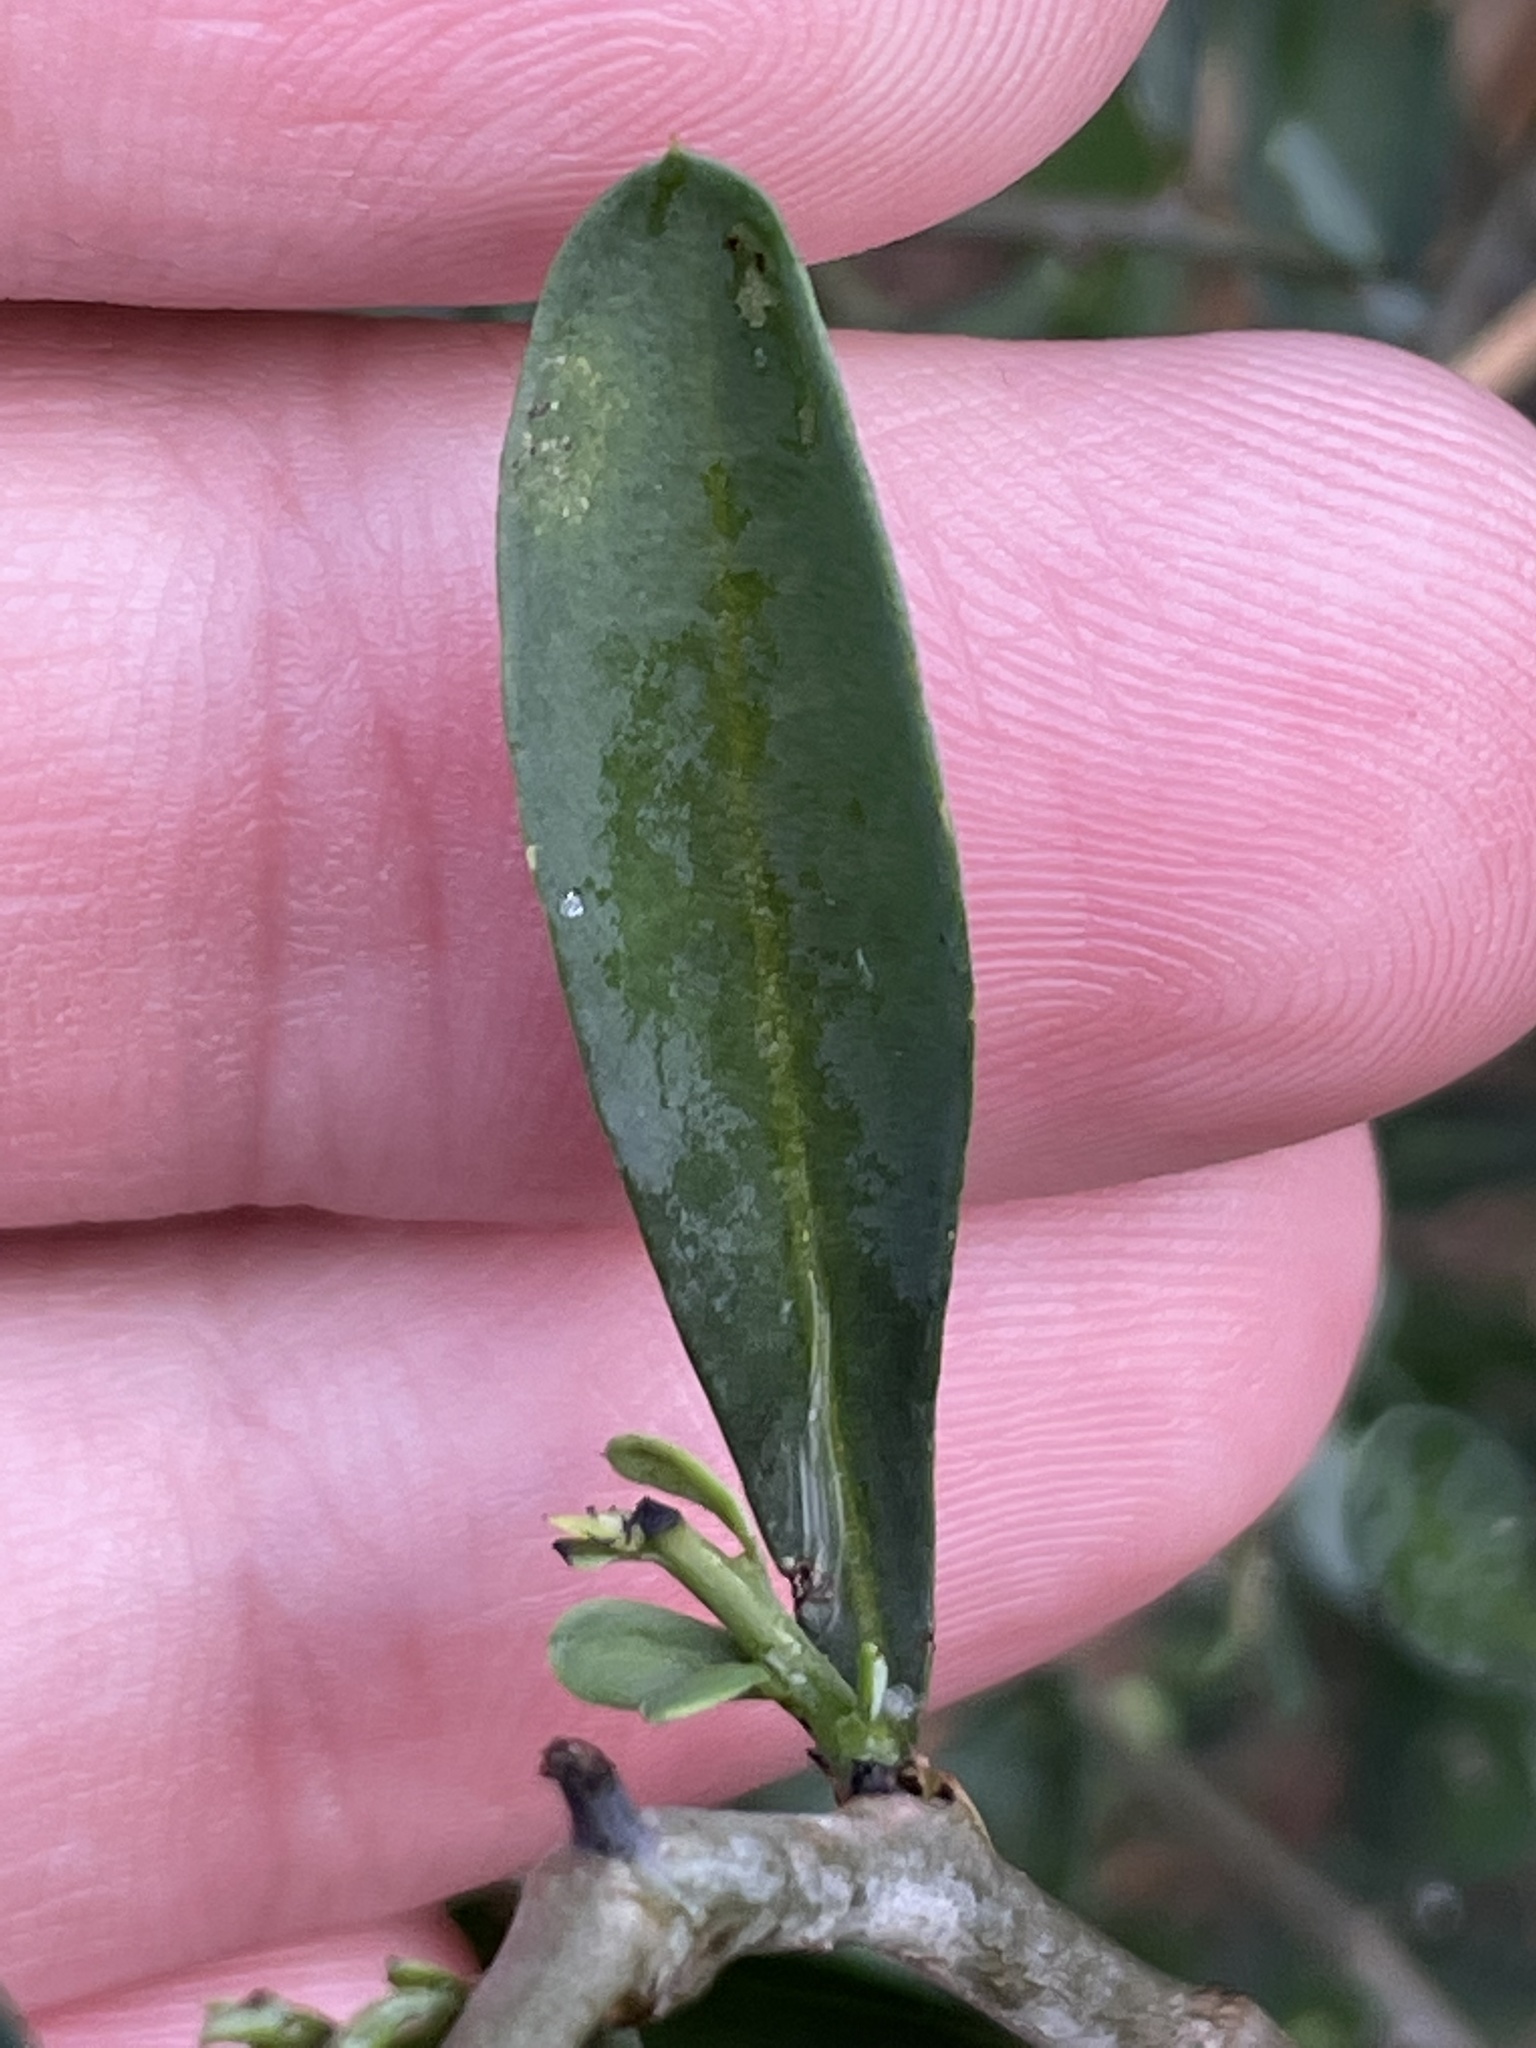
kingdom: Plantae
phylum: Tracheophyta
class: Magnoliopsida
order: Caryophyllales
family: Achatocarpaceae
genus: Phaulothamnus
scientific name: Phaulothamnus spinescens
